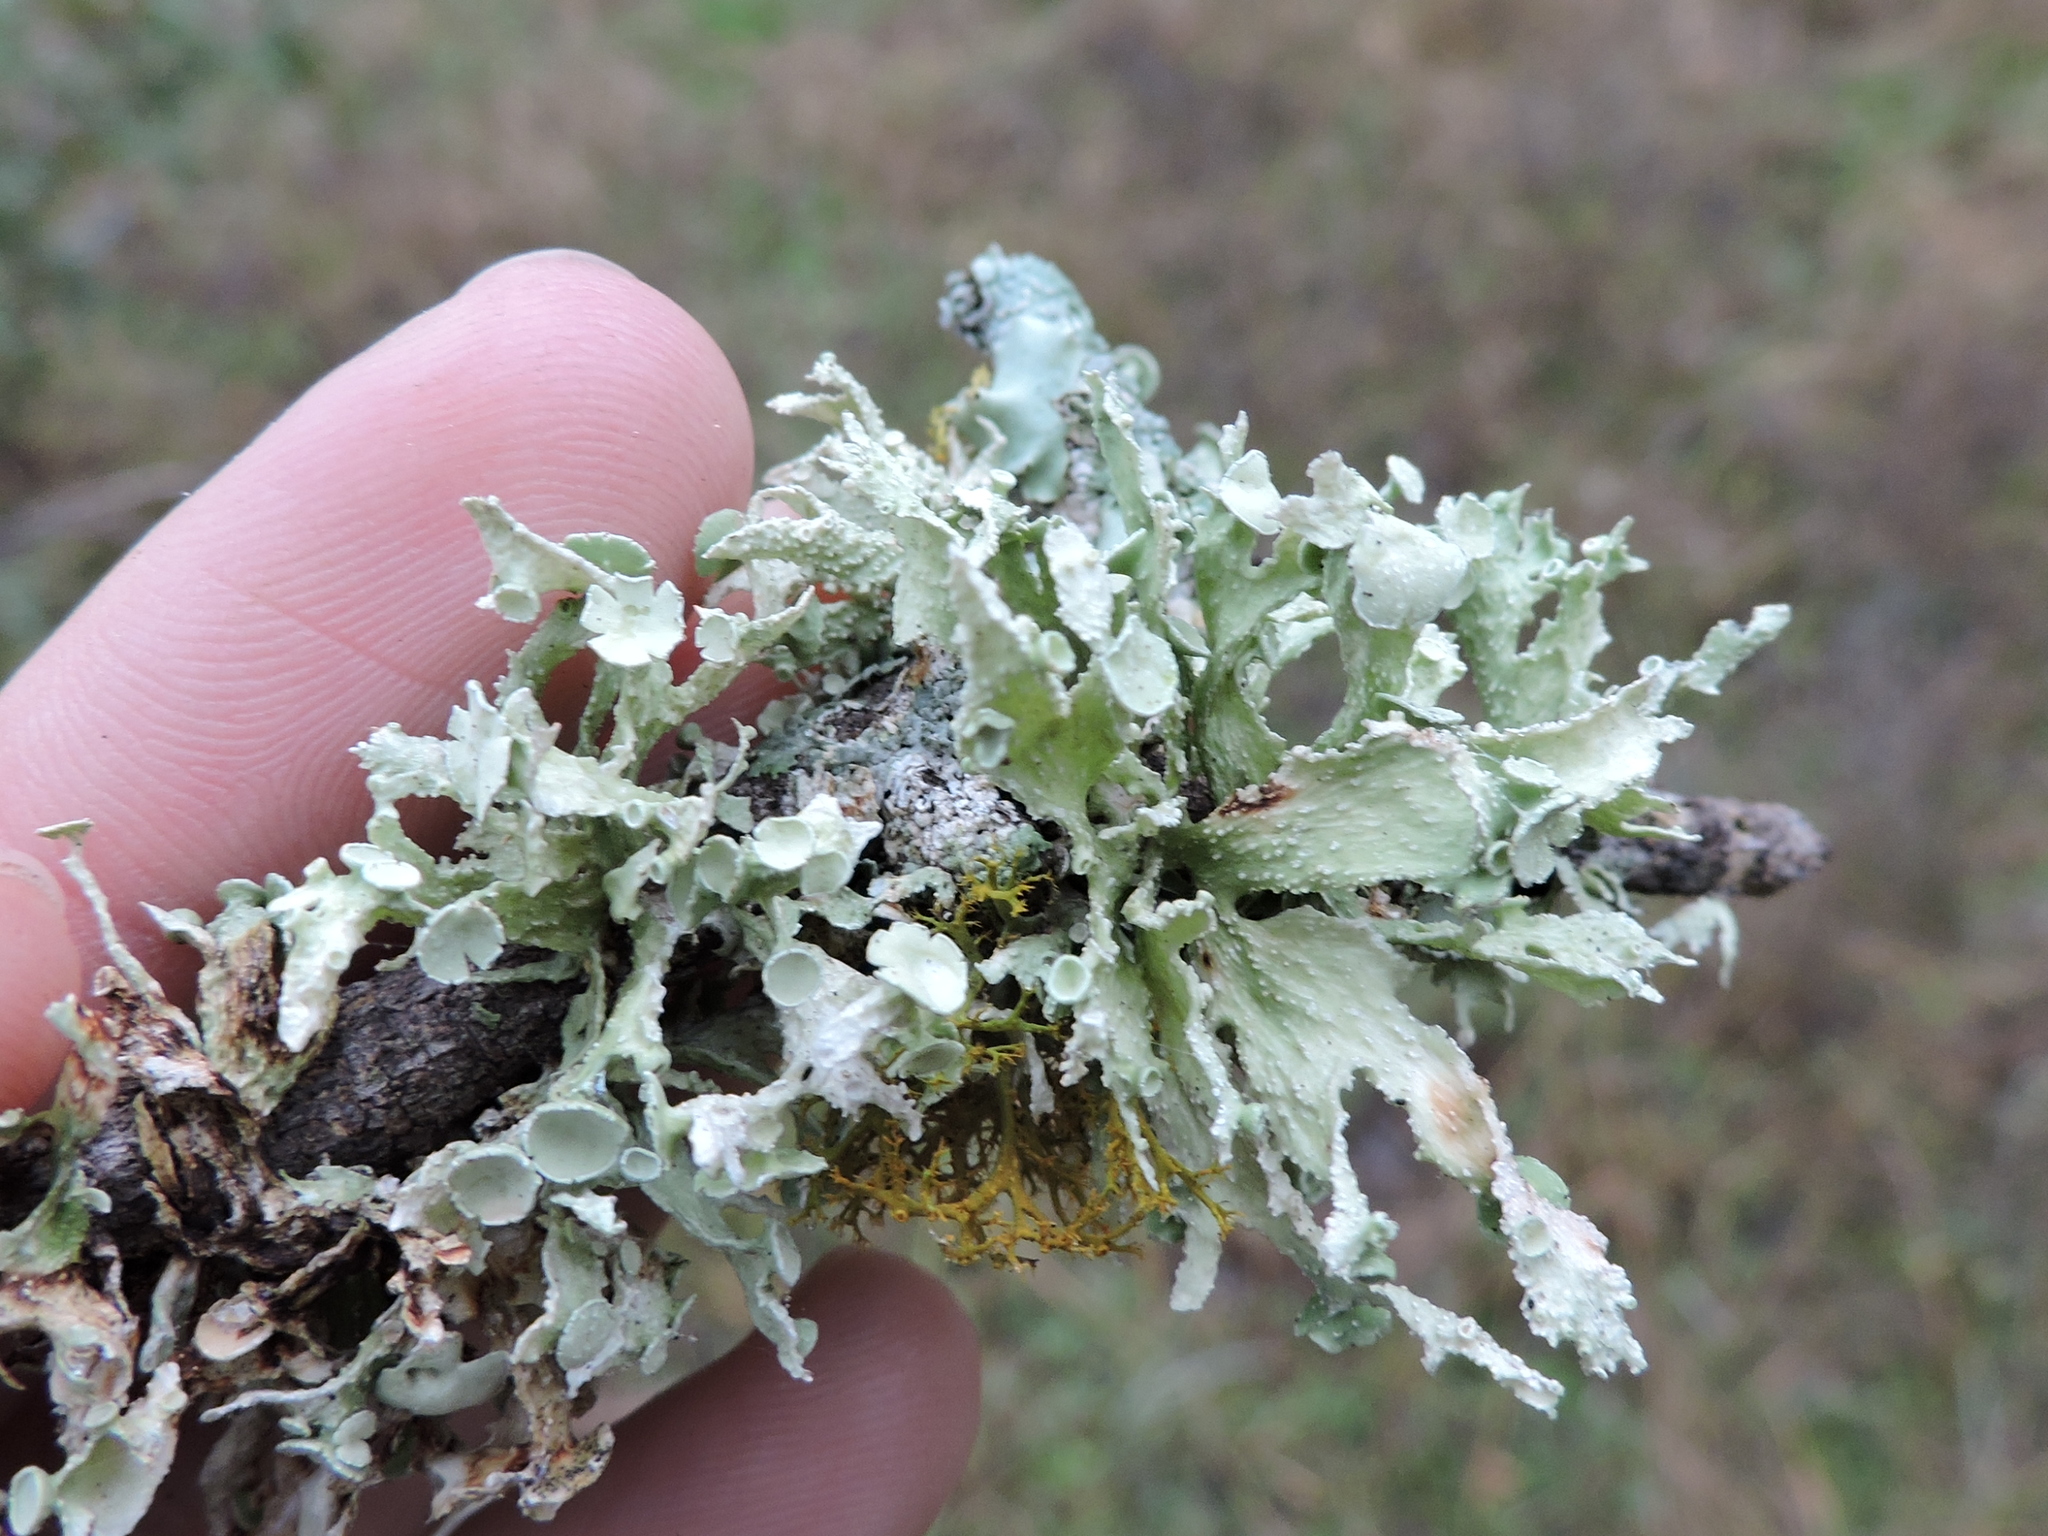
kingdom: Fungi
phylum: Ascomycota
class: Lecanoromycetes
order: Lecanorales
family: Ramalinaceae
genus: Ramalina
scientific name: Ramalina complanata
